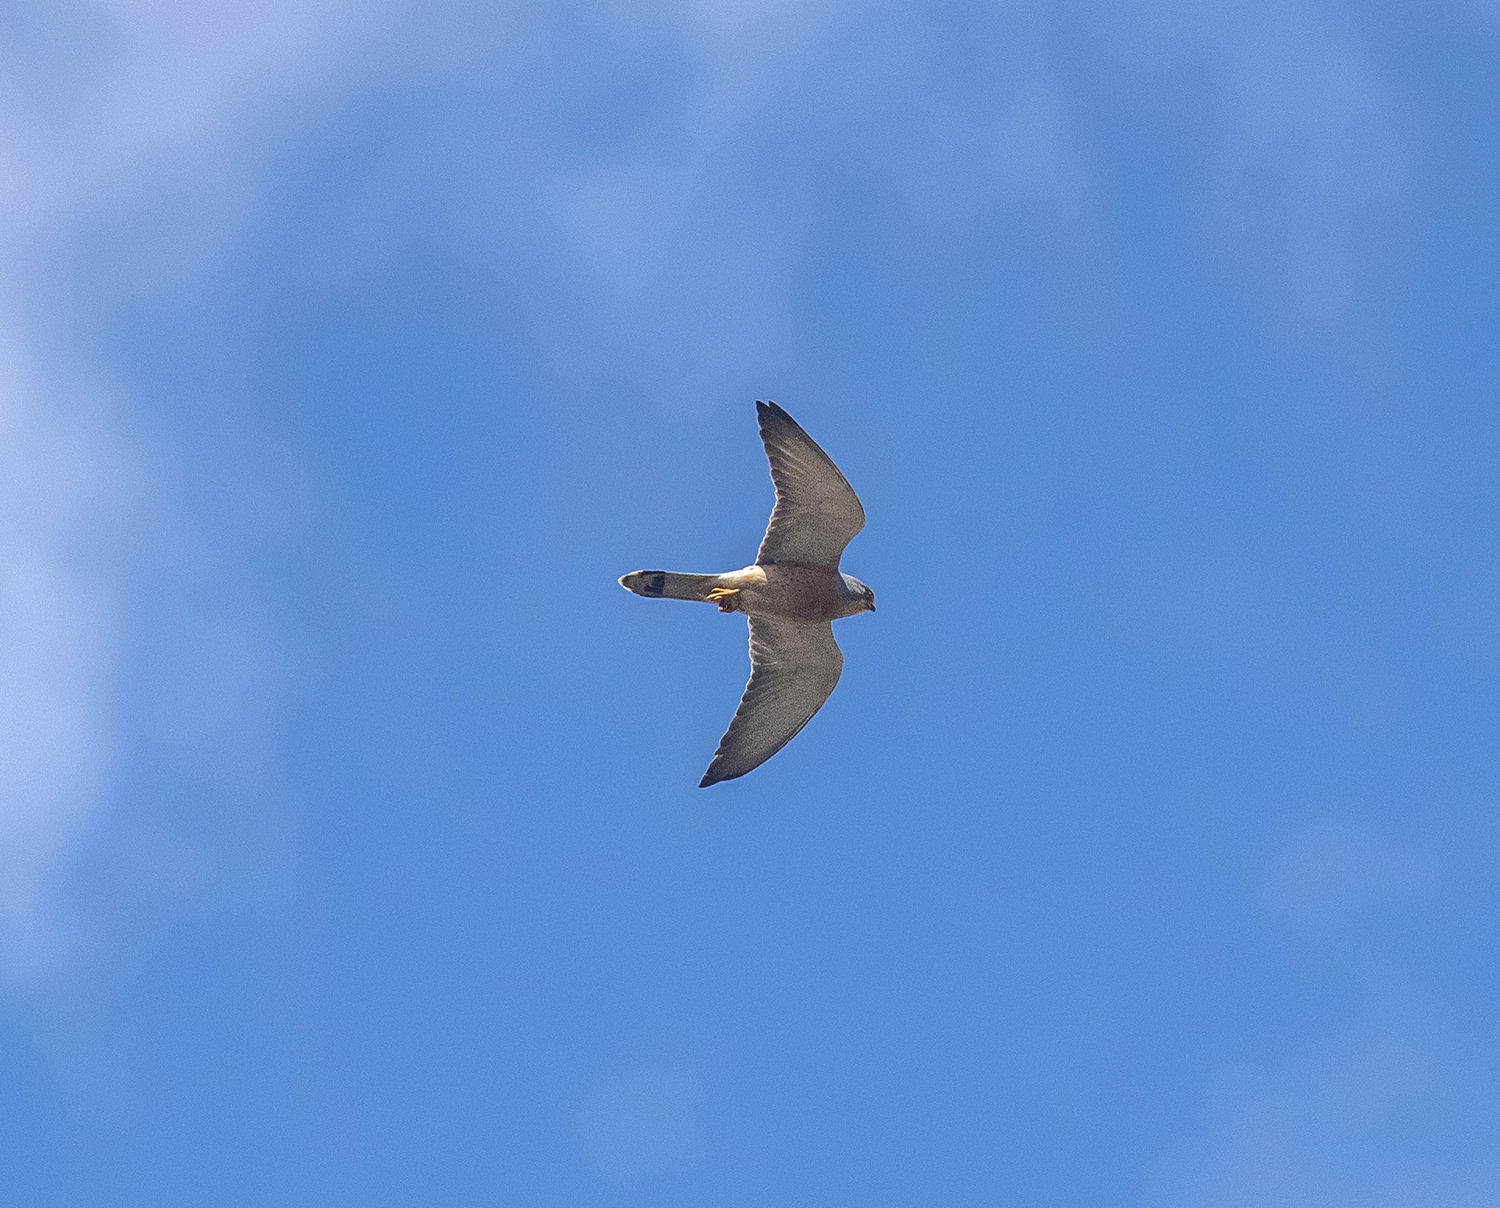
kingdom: Animalia
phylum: Chordata
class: Aves
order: Falconiformes
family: Falconidae
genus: Falco
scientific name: Falco naumanni
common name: Lesser kestrel
